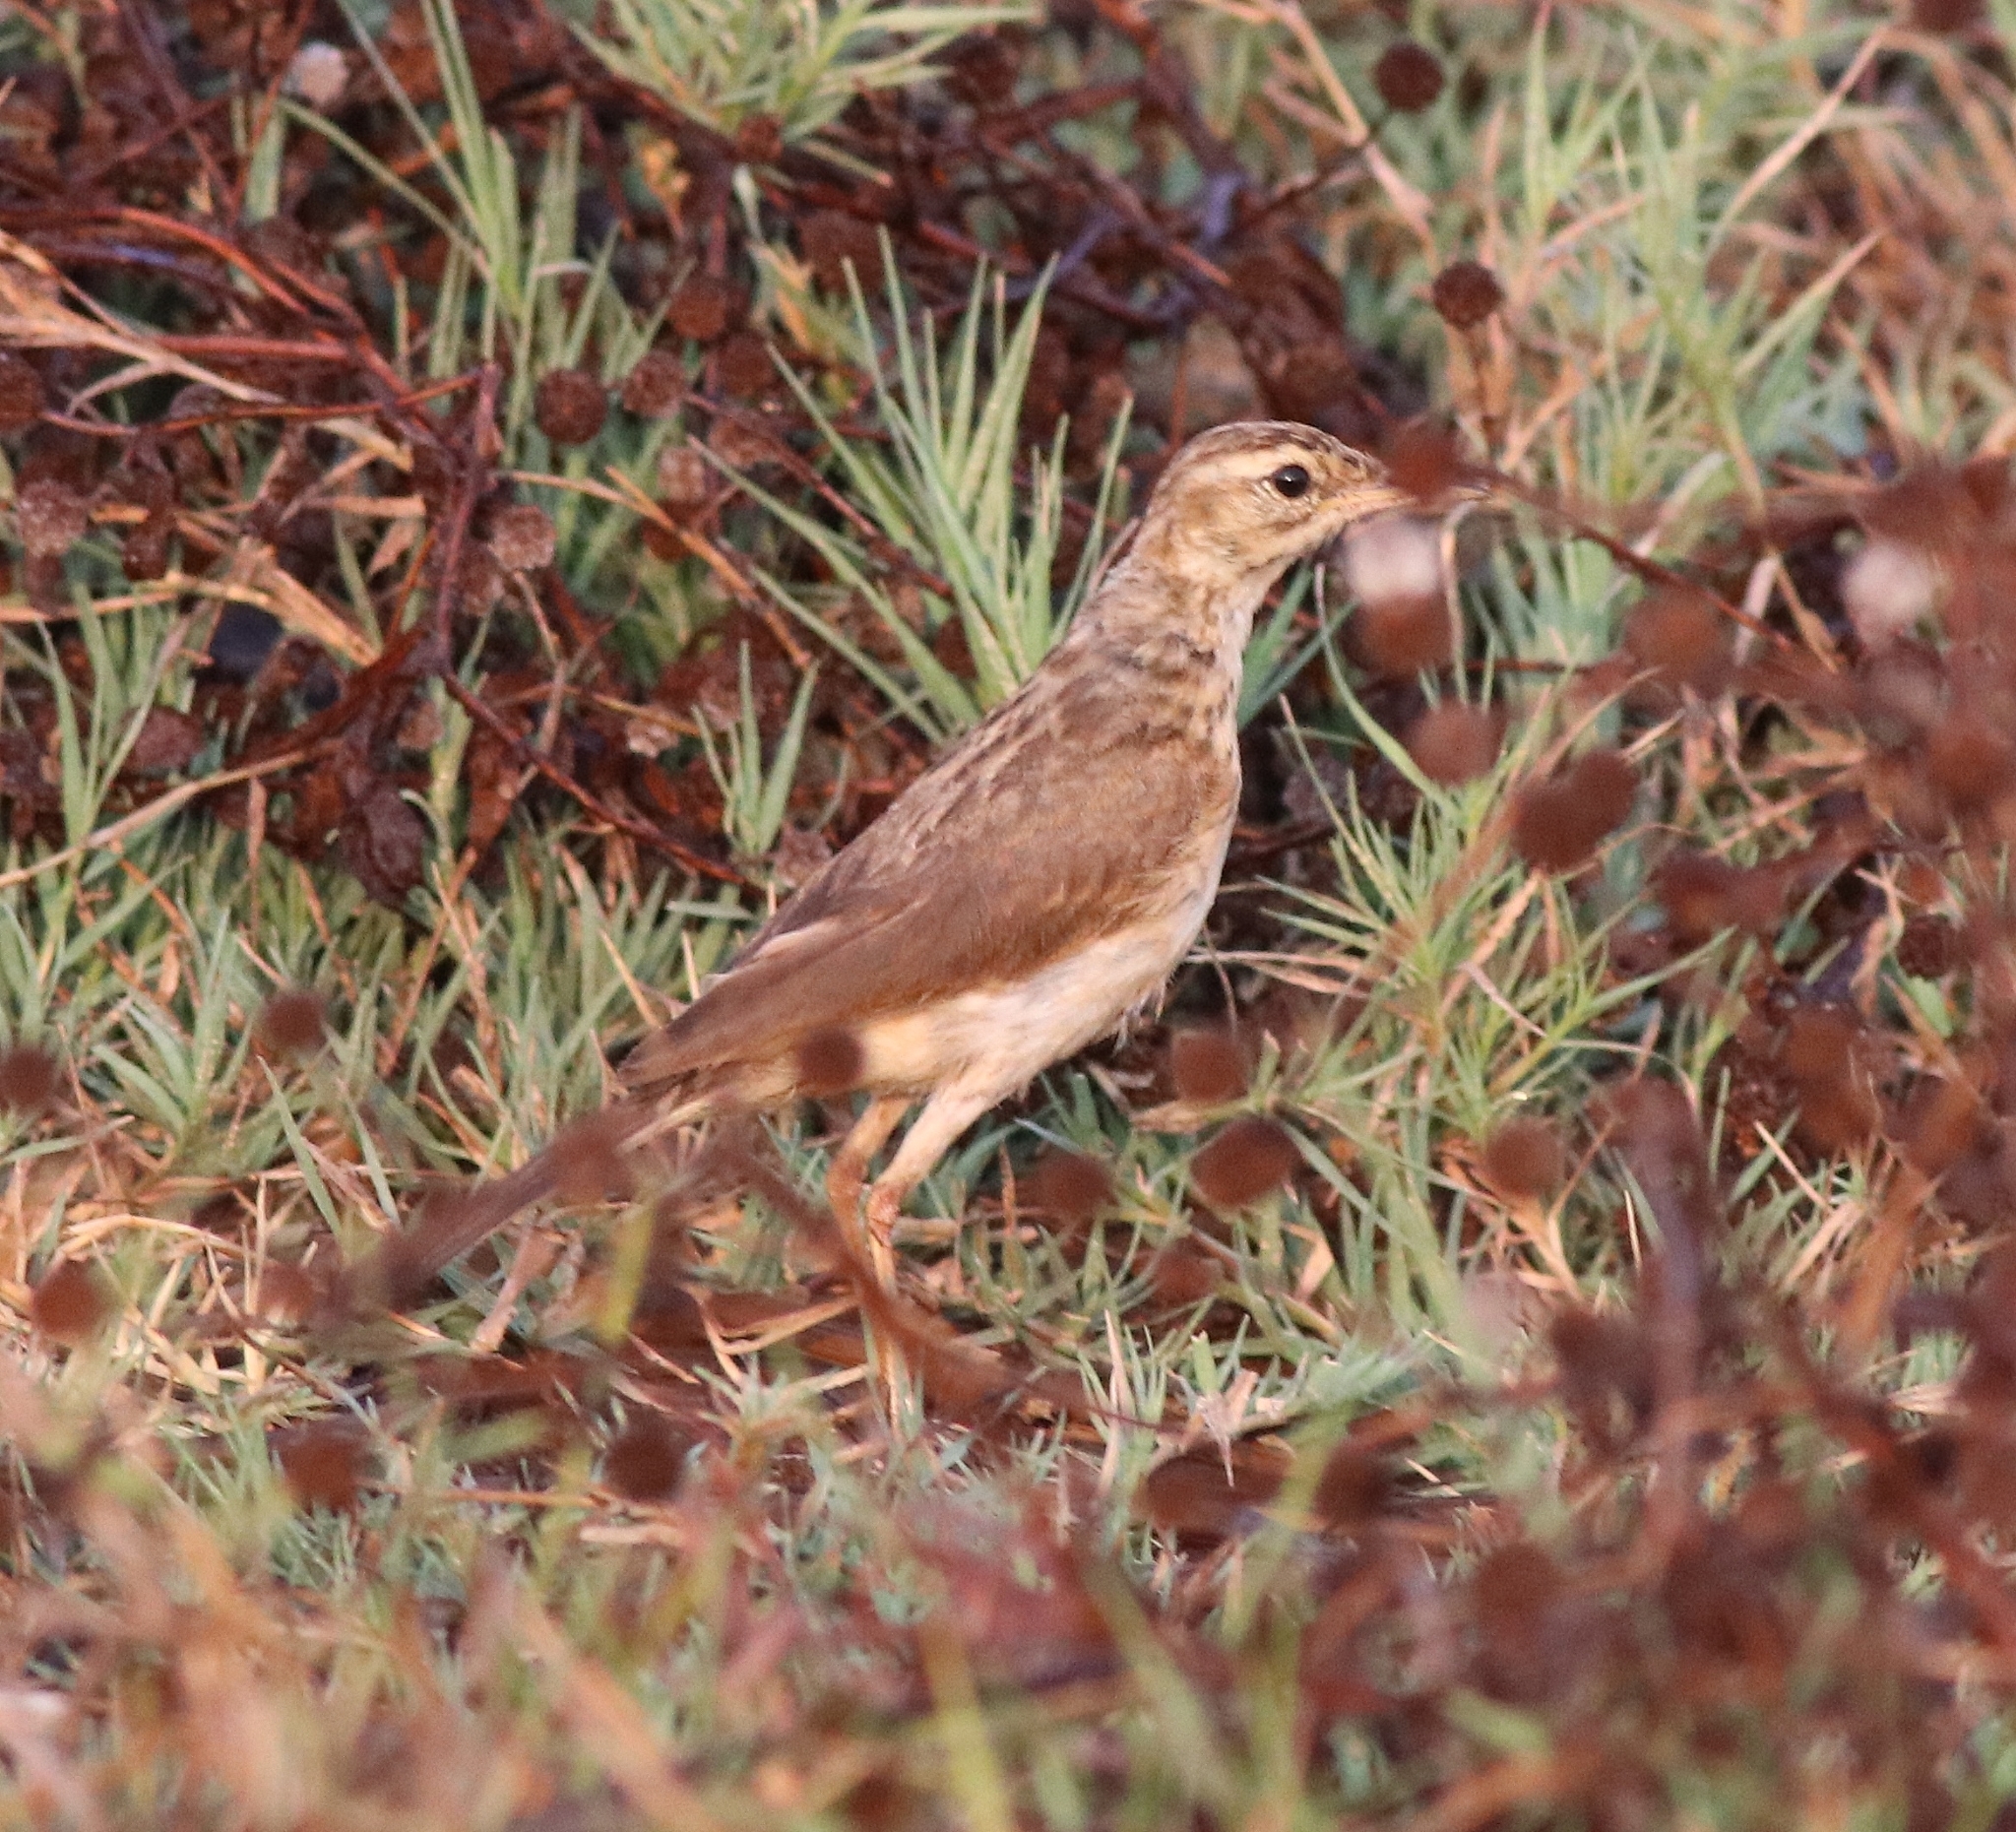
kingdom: Animalia
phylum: Chordata
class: Aves
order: Passeriformes
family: Motacillidae
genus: Anthus
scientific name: Anthus rufulus
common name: Paddyfield pipit
